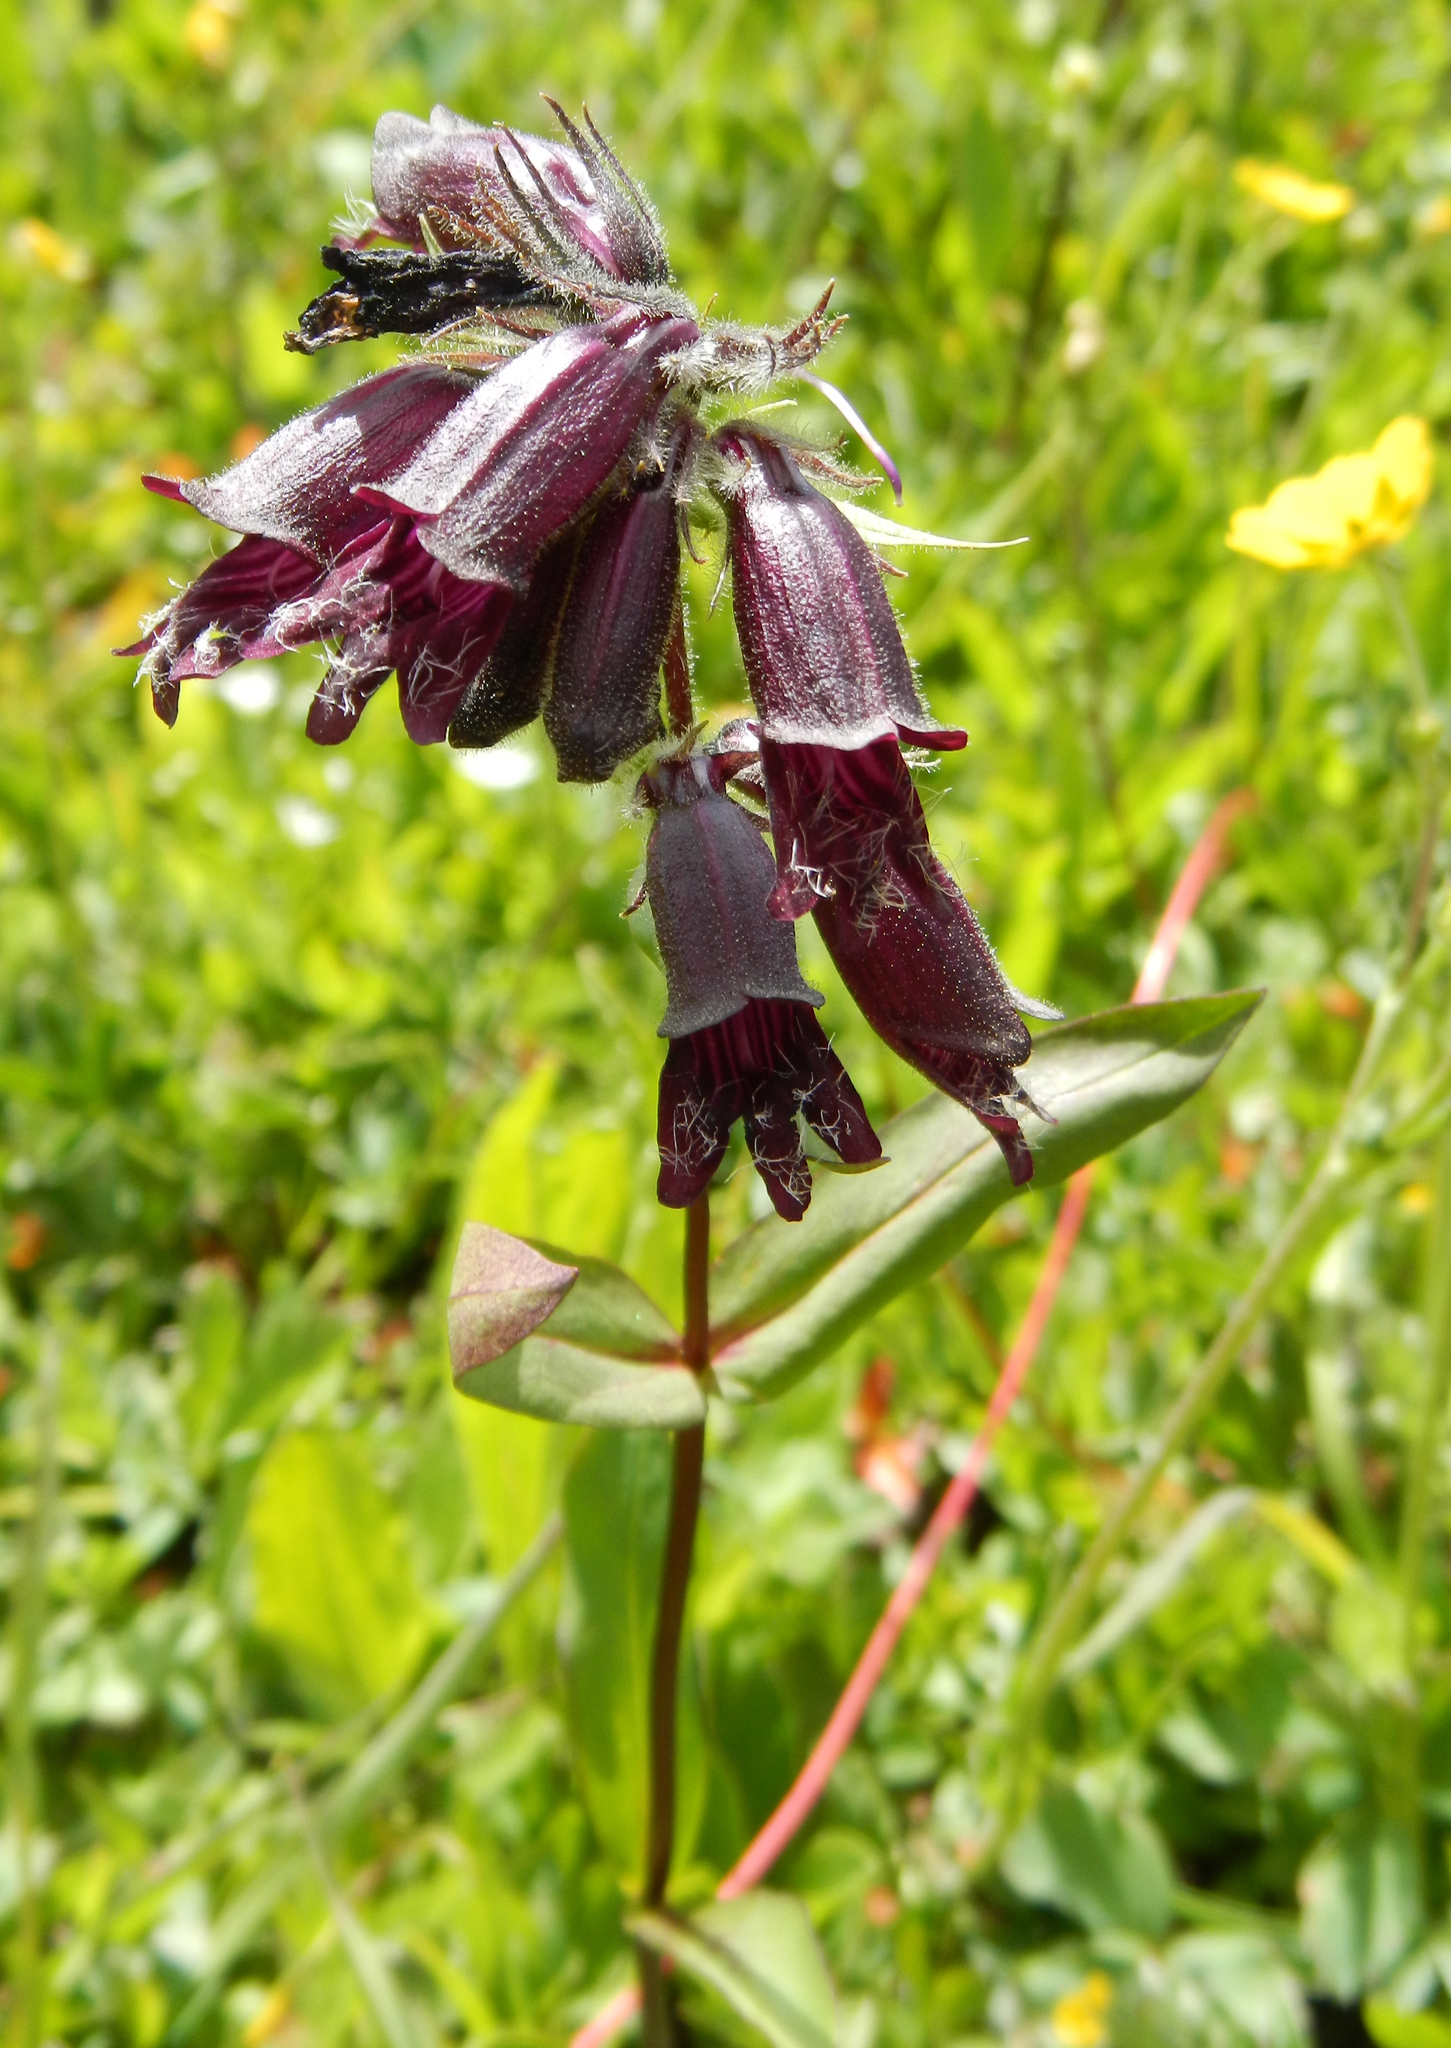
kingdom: Plantae
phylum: Tracheophyta
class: Magnoliopsida
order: Lamiales
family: Plantaginaceae
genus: Penstemon
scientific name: Penstemon whippleanus
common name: Whipple's penstemon
